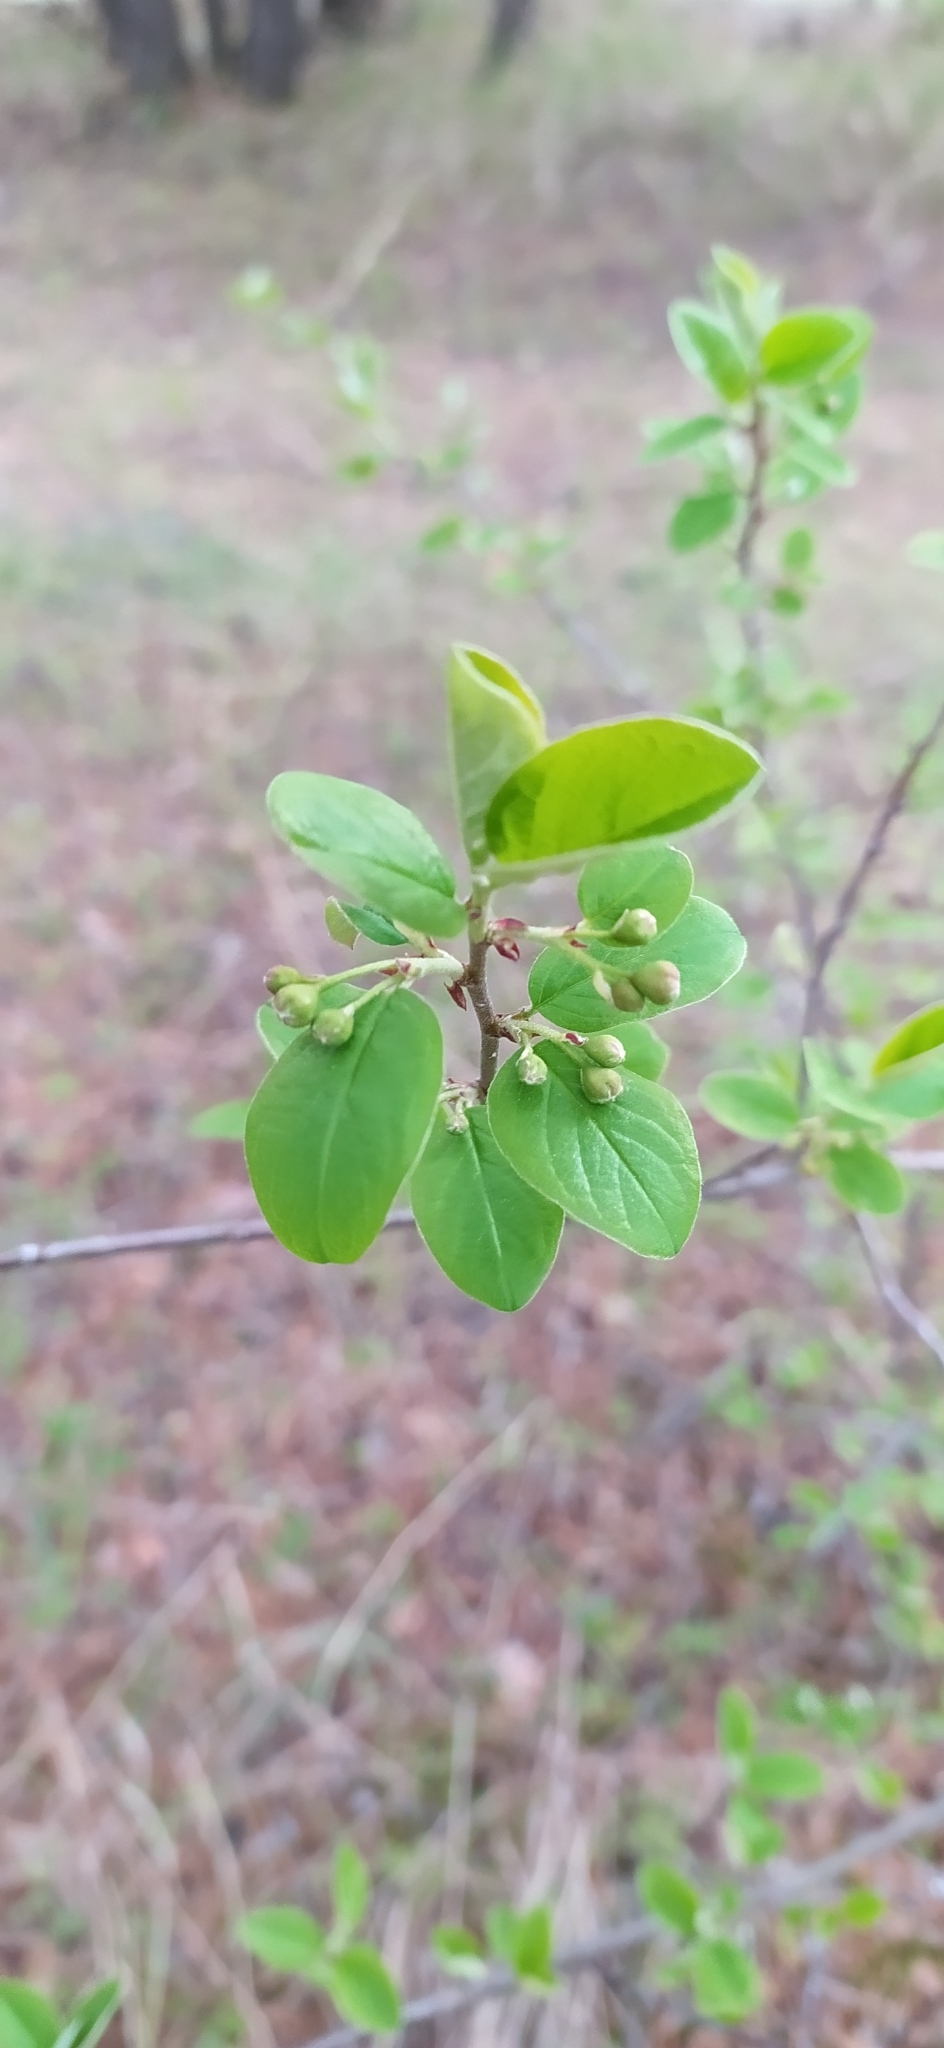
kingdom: Plantae
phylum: Tracheophyta
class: Magnoliopsida
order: Rosales
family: Rosaceae
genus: Cotoneaster
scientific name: Cotoneaster melanocarpus
